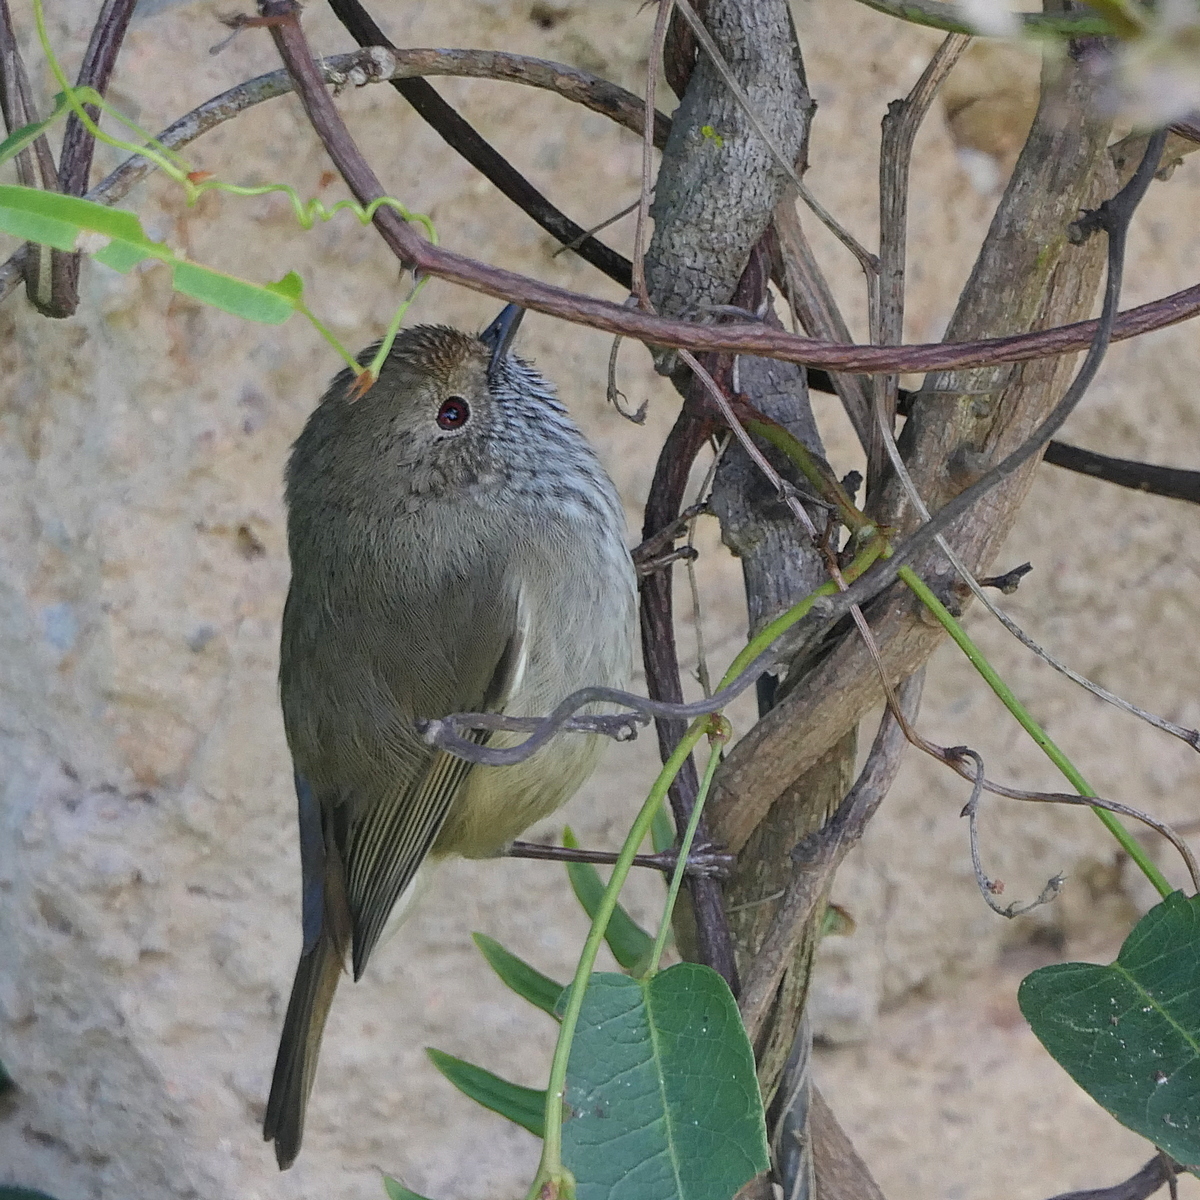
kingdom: Animalia
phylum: Chordata
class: Aves
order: Passeriformes
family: Acanthizidae
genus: Acanthiza
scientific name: Acanthiza pusilla
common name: Brown thornbill
